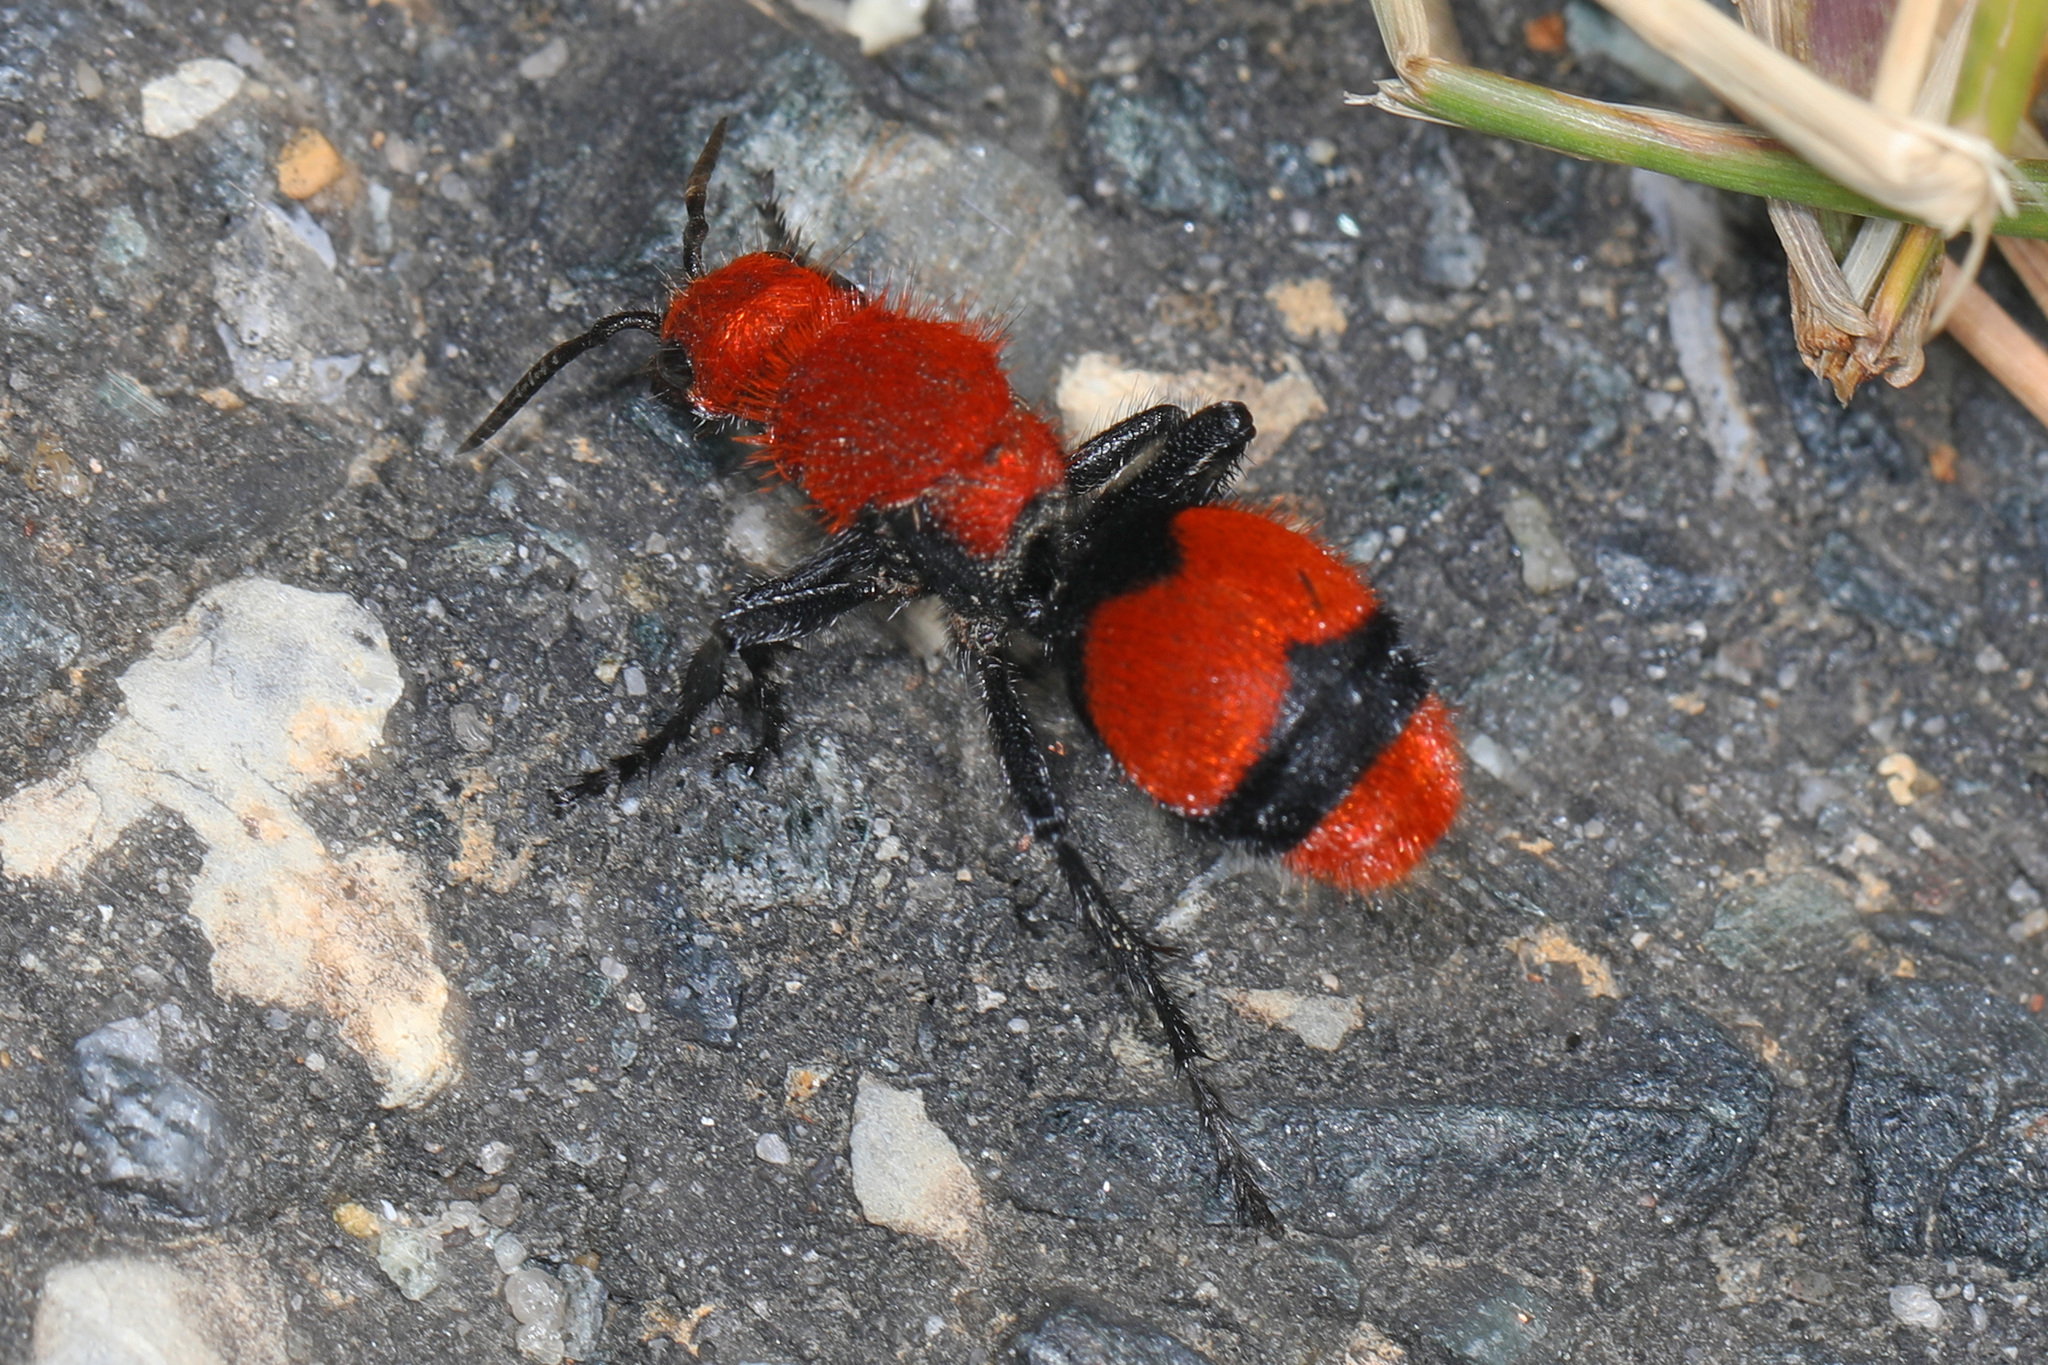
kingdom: Animalia
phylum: Arthropoda
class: Insecta
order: Hymenoptera
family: Mutillidae
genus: Dasymutilla
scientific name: Dasymutilla occidentalis
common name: Common eastern velvet ant
